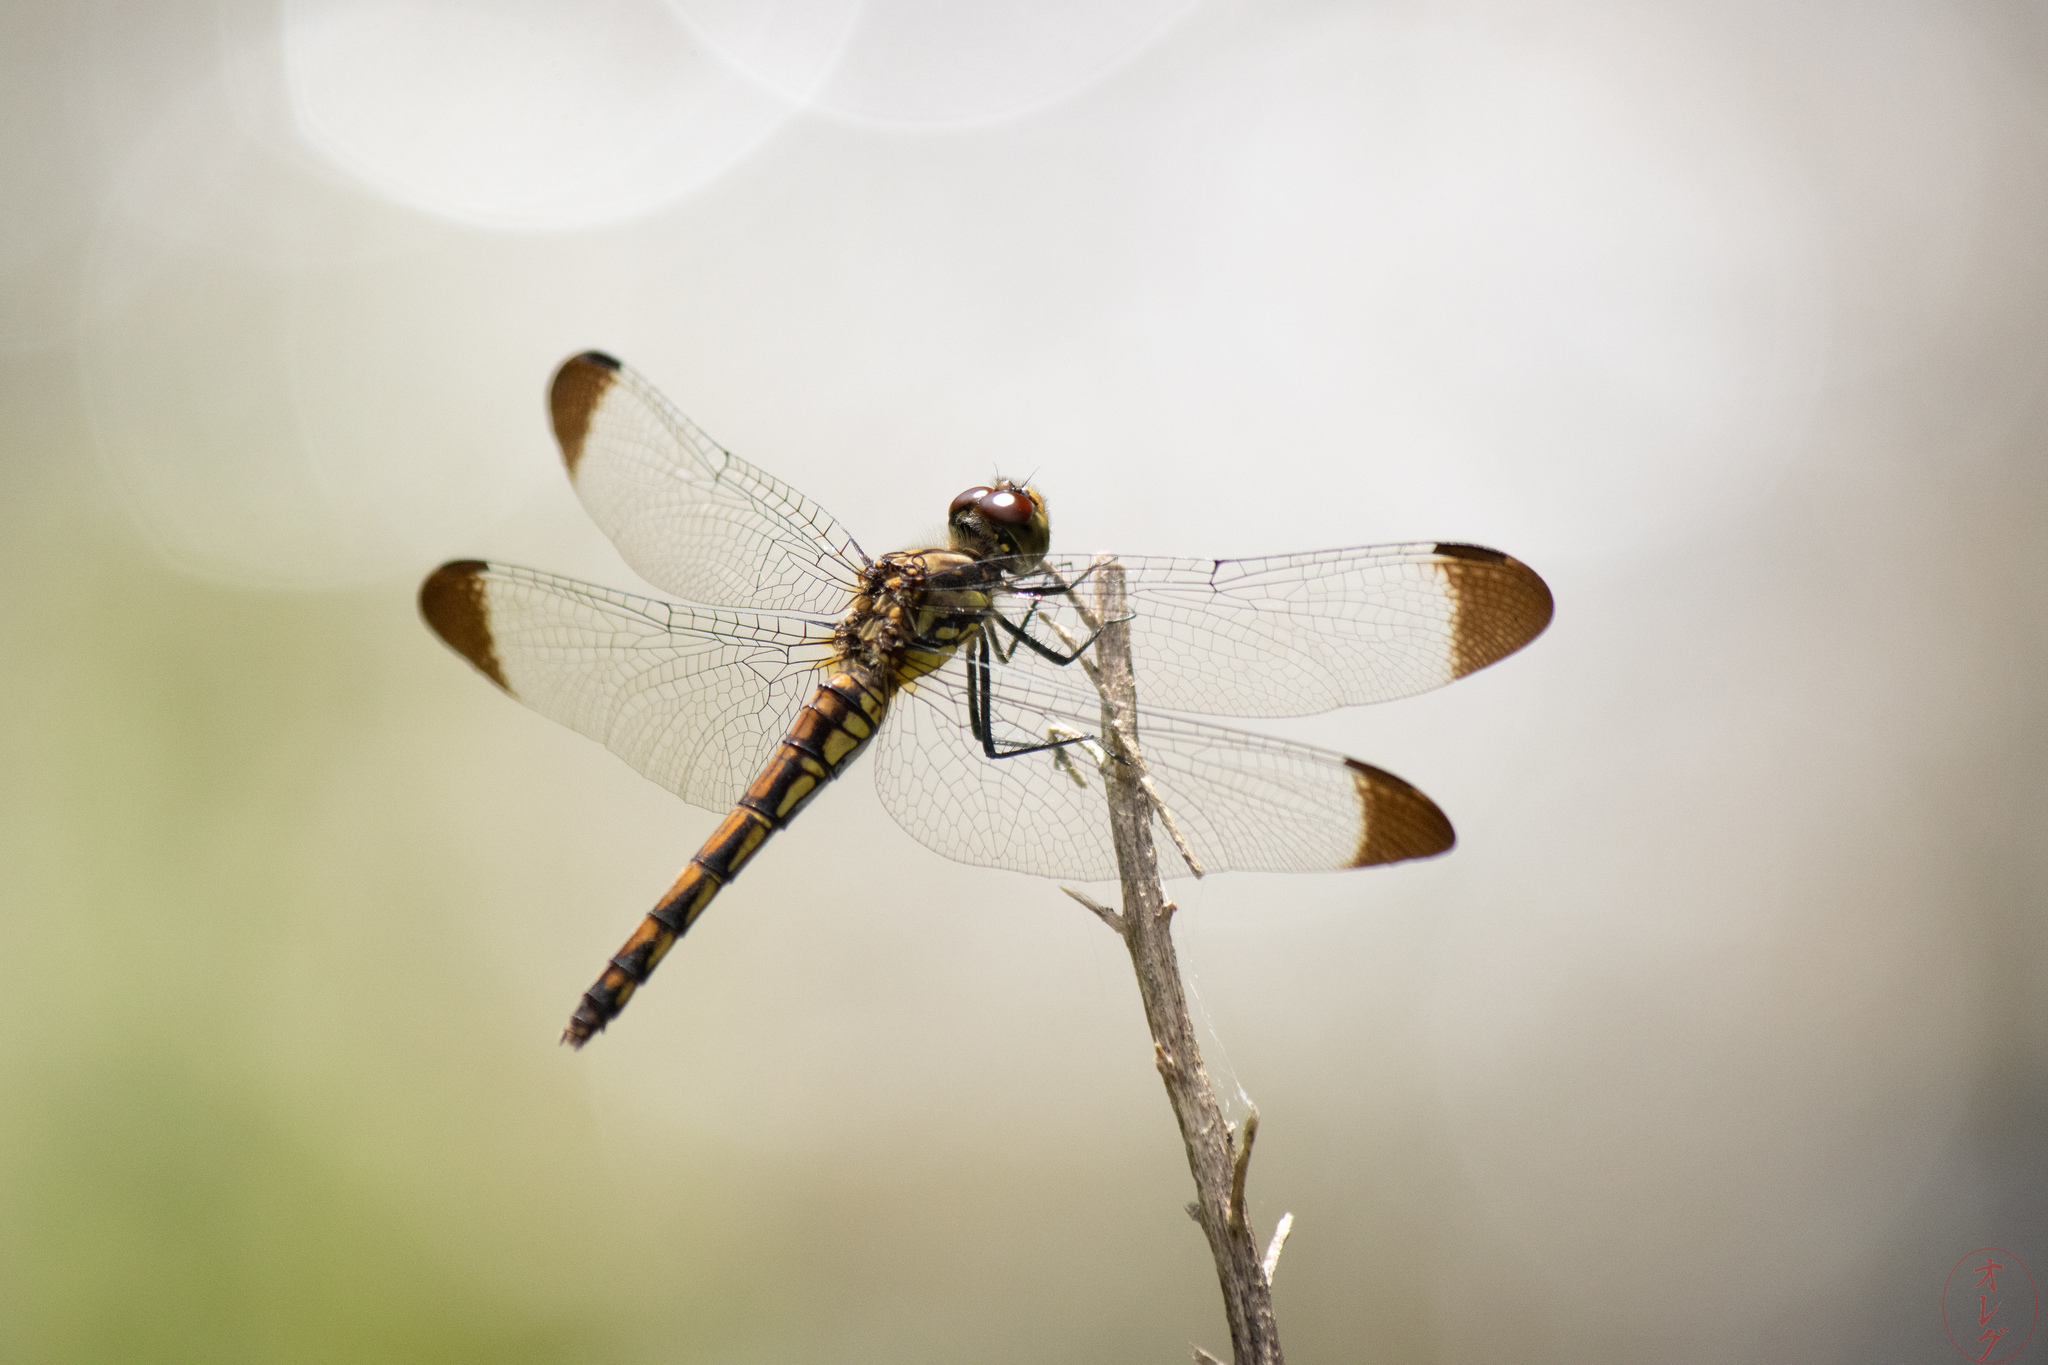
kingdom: Animalia
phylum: Arthropoda
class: Insecta
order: Odonata
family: Libellulidae
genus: Sympetrum
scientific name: Sympetrum baccha
